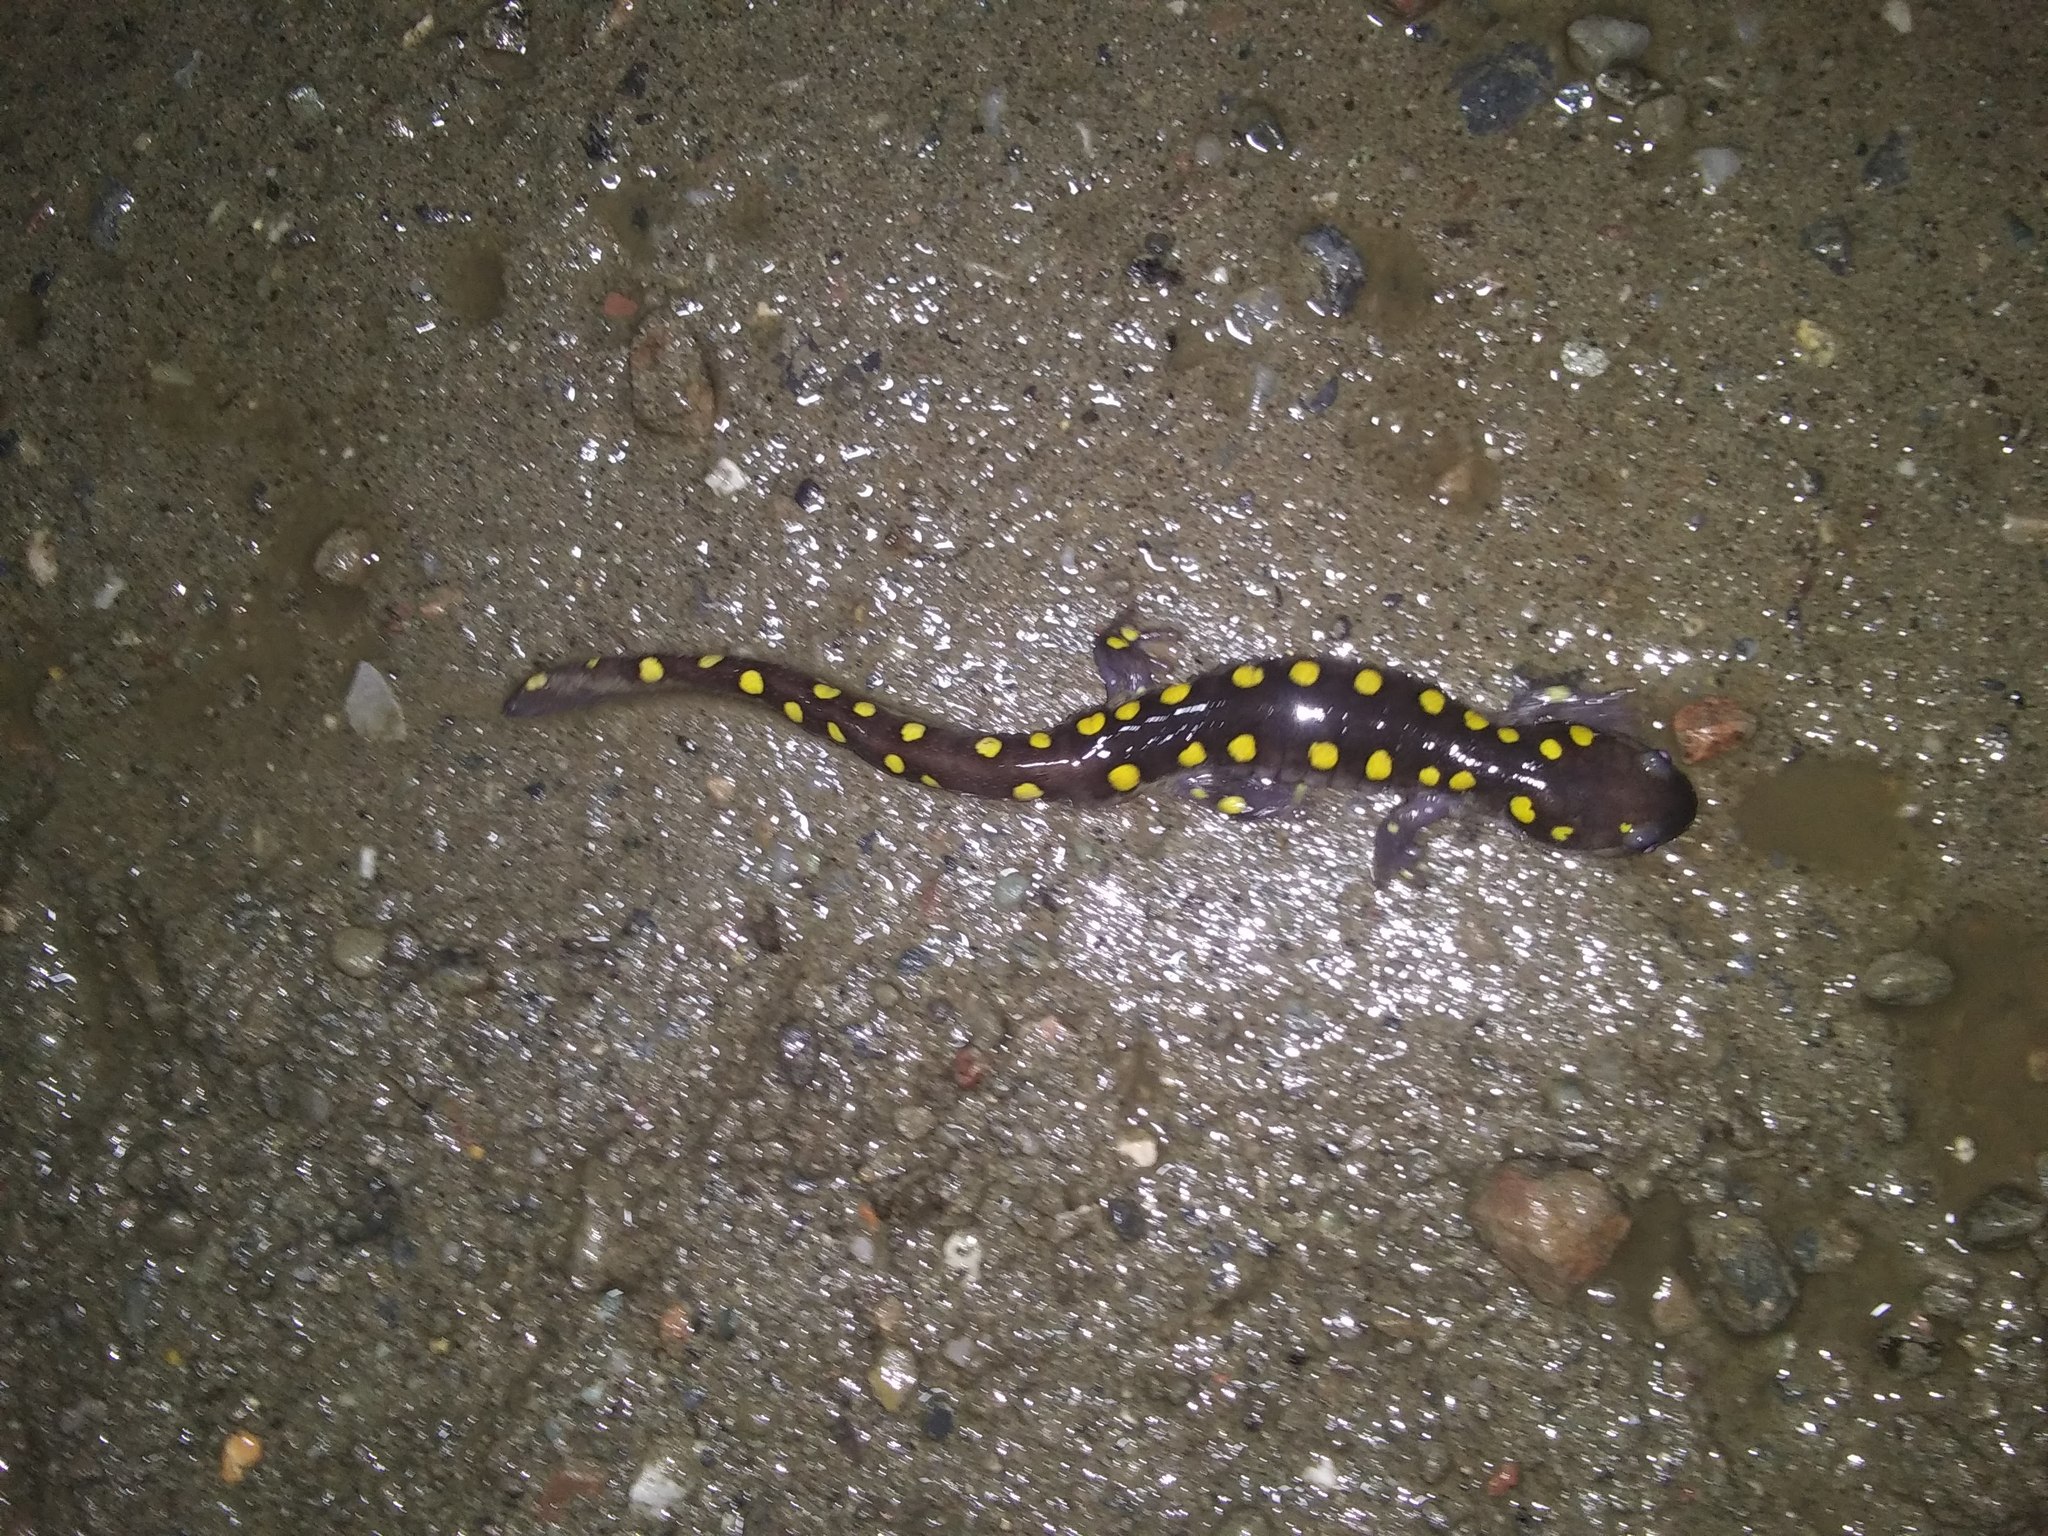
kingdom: Animalia
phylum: Chordata
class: Amphibia
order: Caudata
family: Ambystomatidae
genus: Ambystoma
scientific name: Ambystoma maculatum
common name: Spotted salamander
